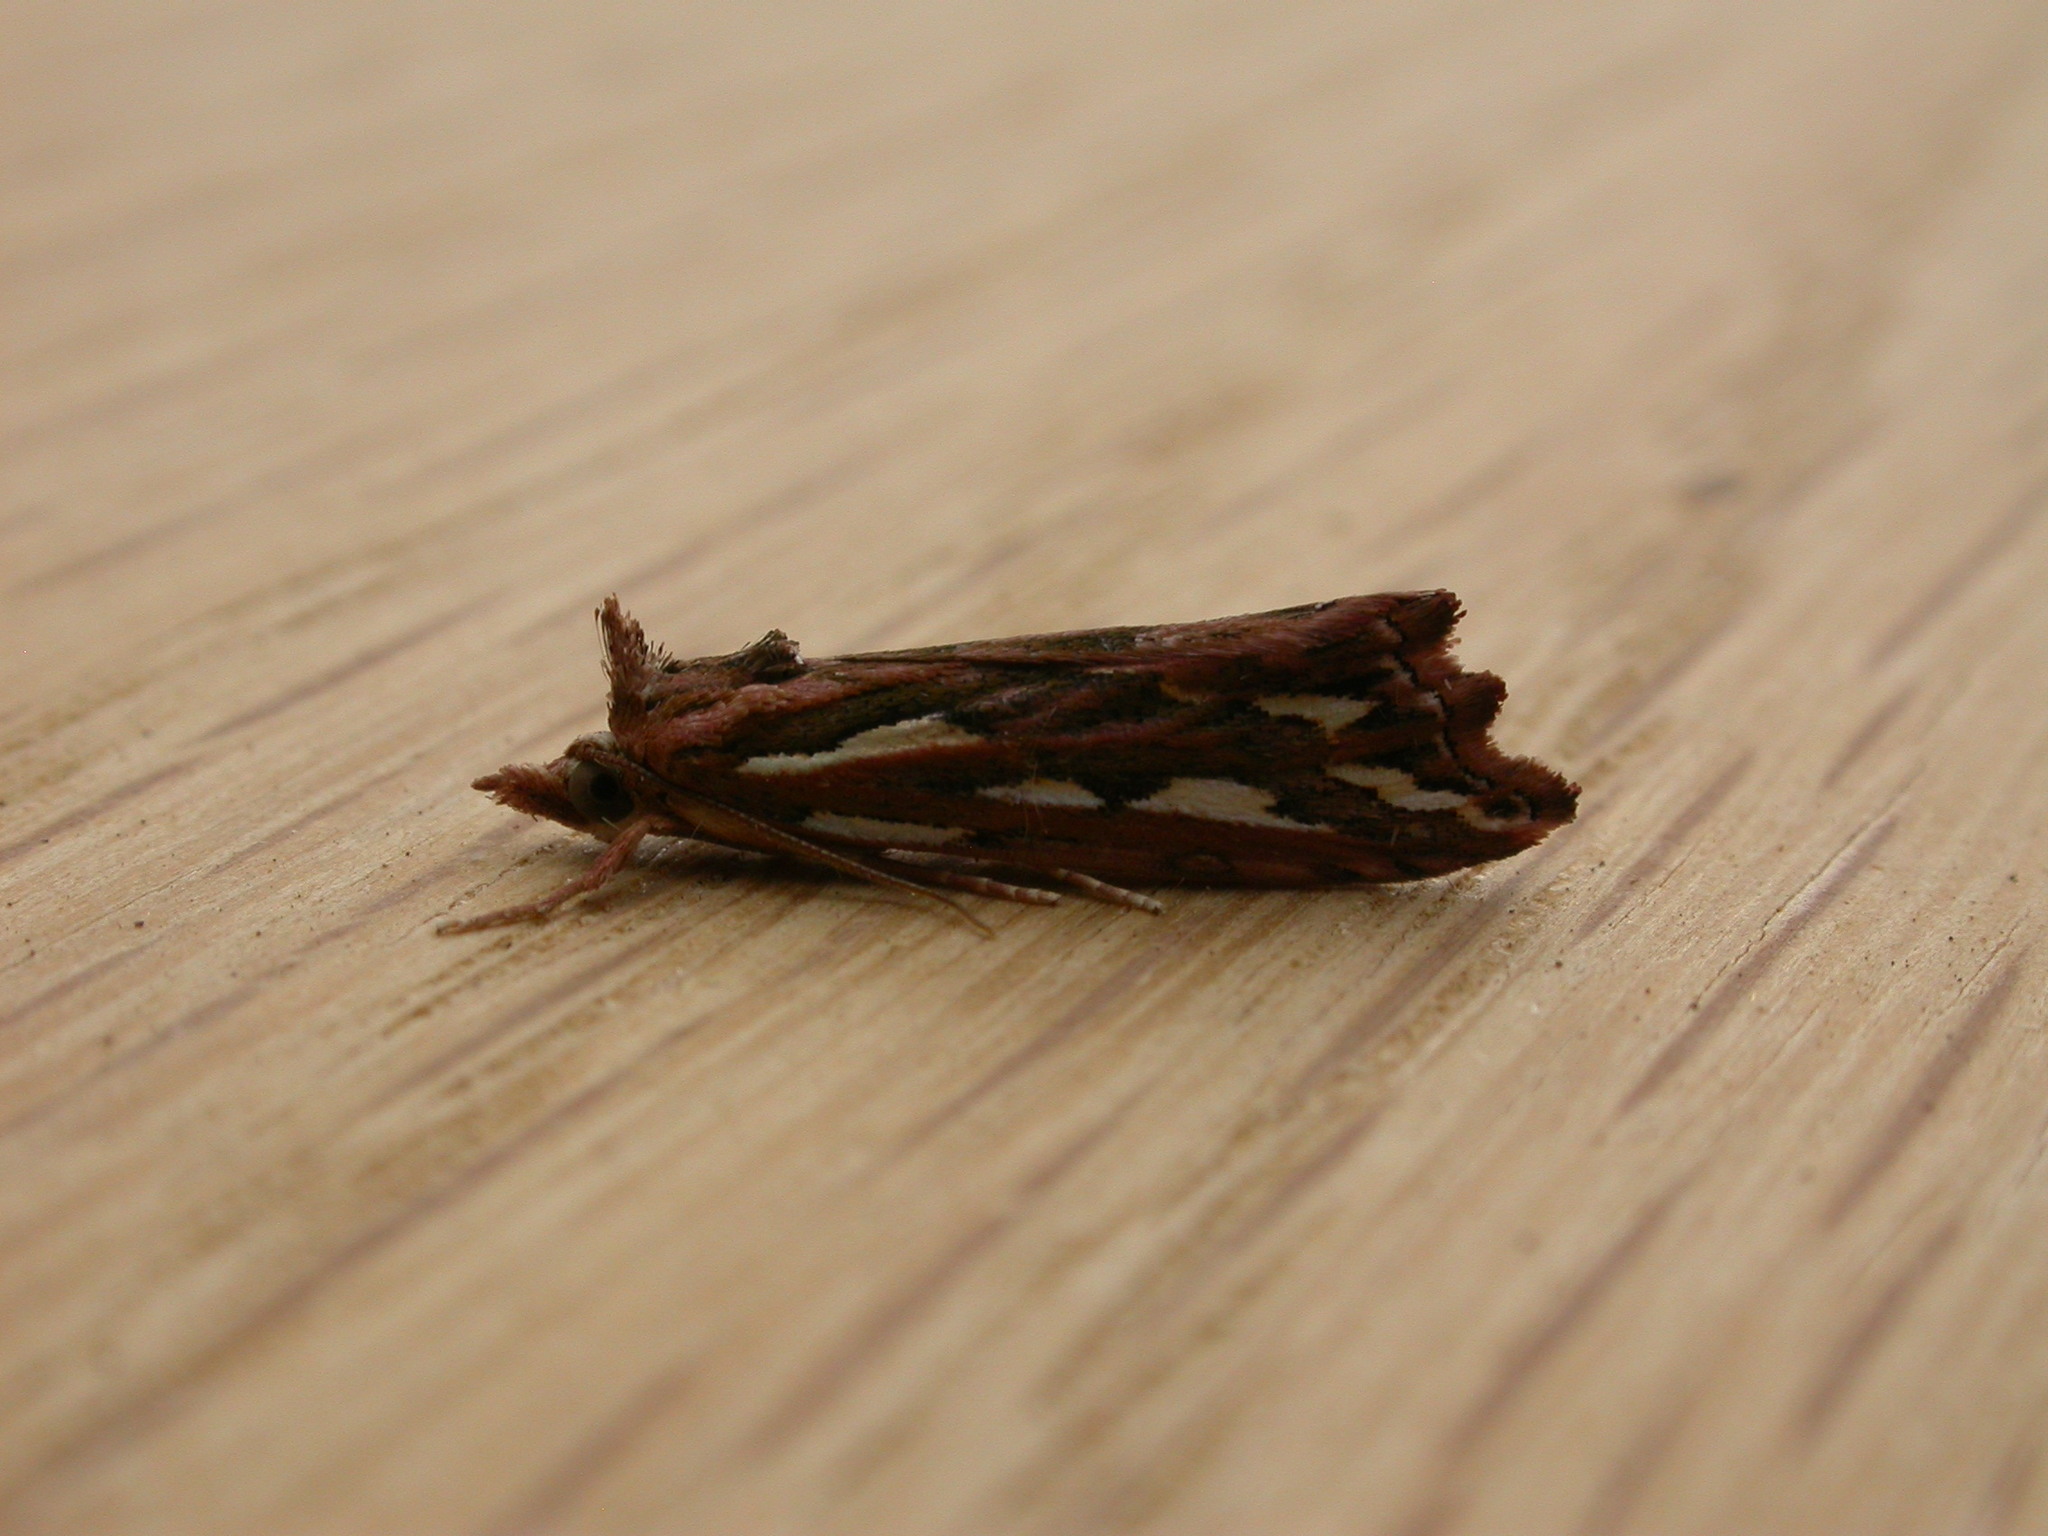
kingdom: Animalia
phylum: Arthropoda
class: Insecta
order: Lepidoptera
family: Erebidae
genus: Meyrickella
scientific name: Meyrickella torquesauria
